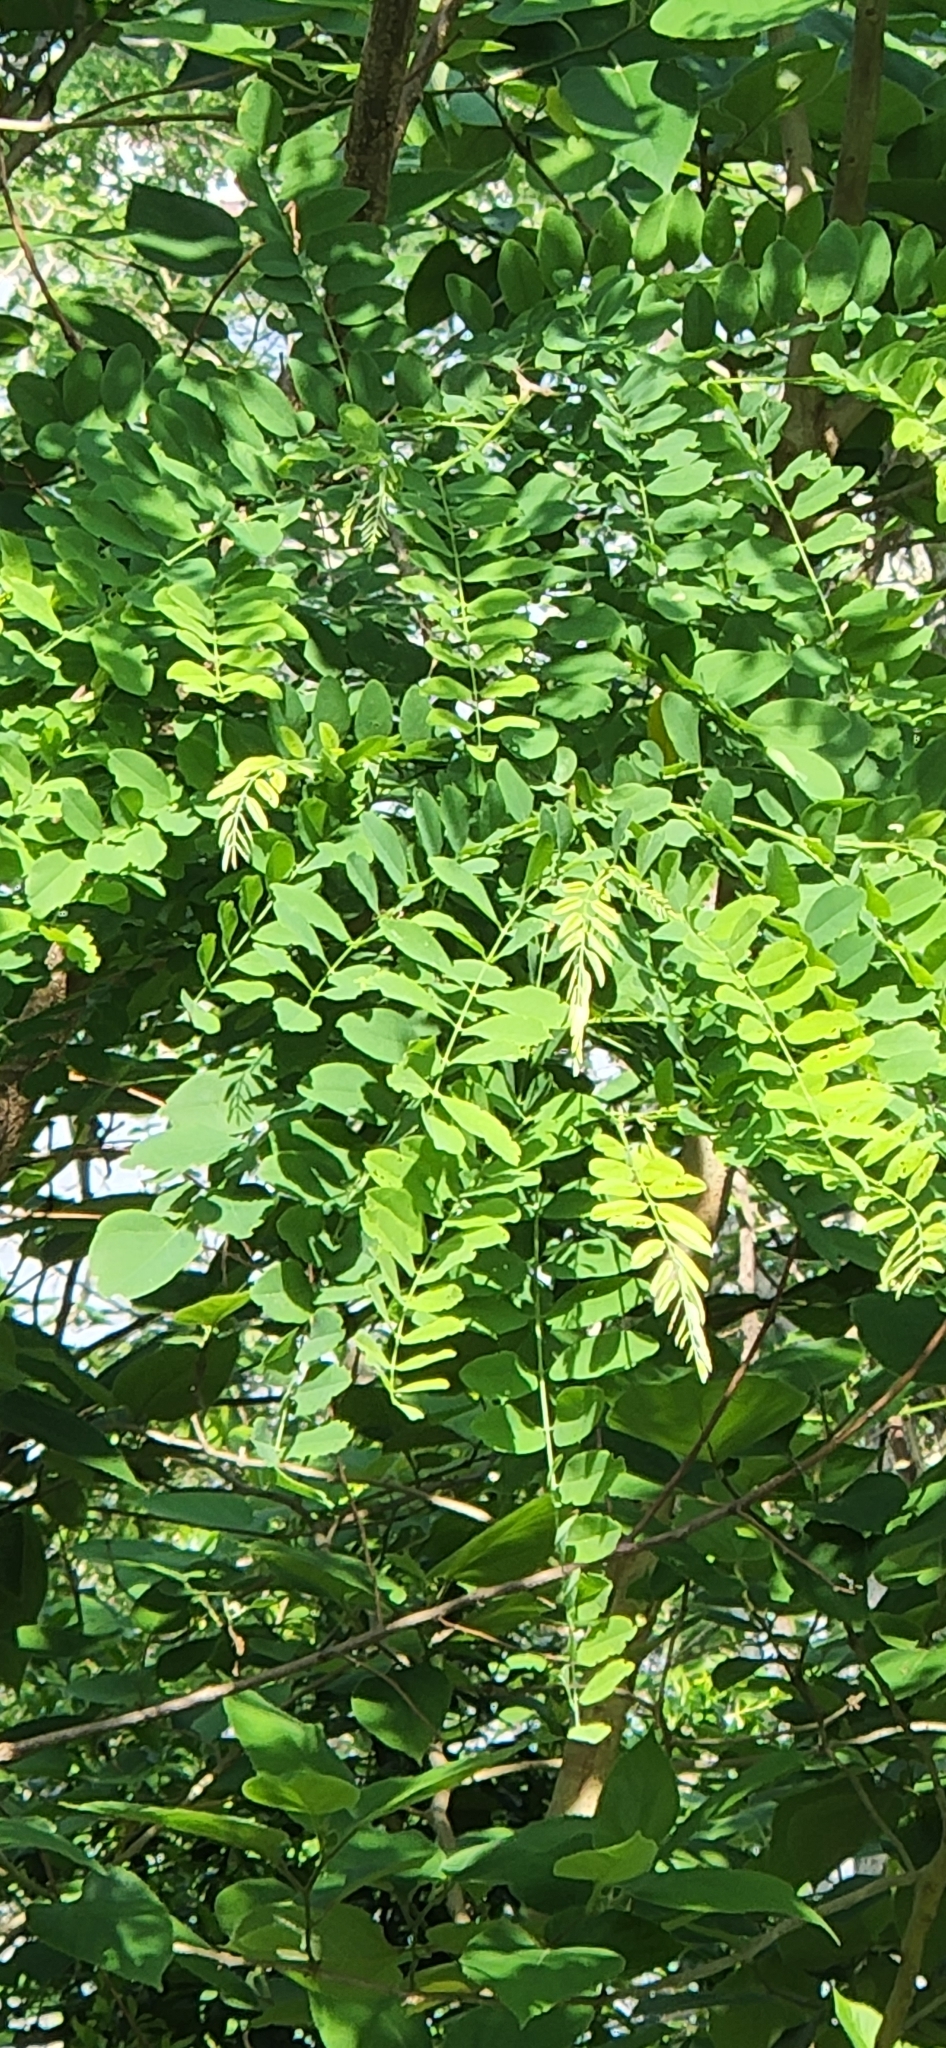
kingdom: Plantae
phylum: Tracheophyta
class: Magnoliopsida
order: Fabales
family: Fabaceae
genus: Robinia
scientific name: Robinia pseudoacacia
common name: Black locust
